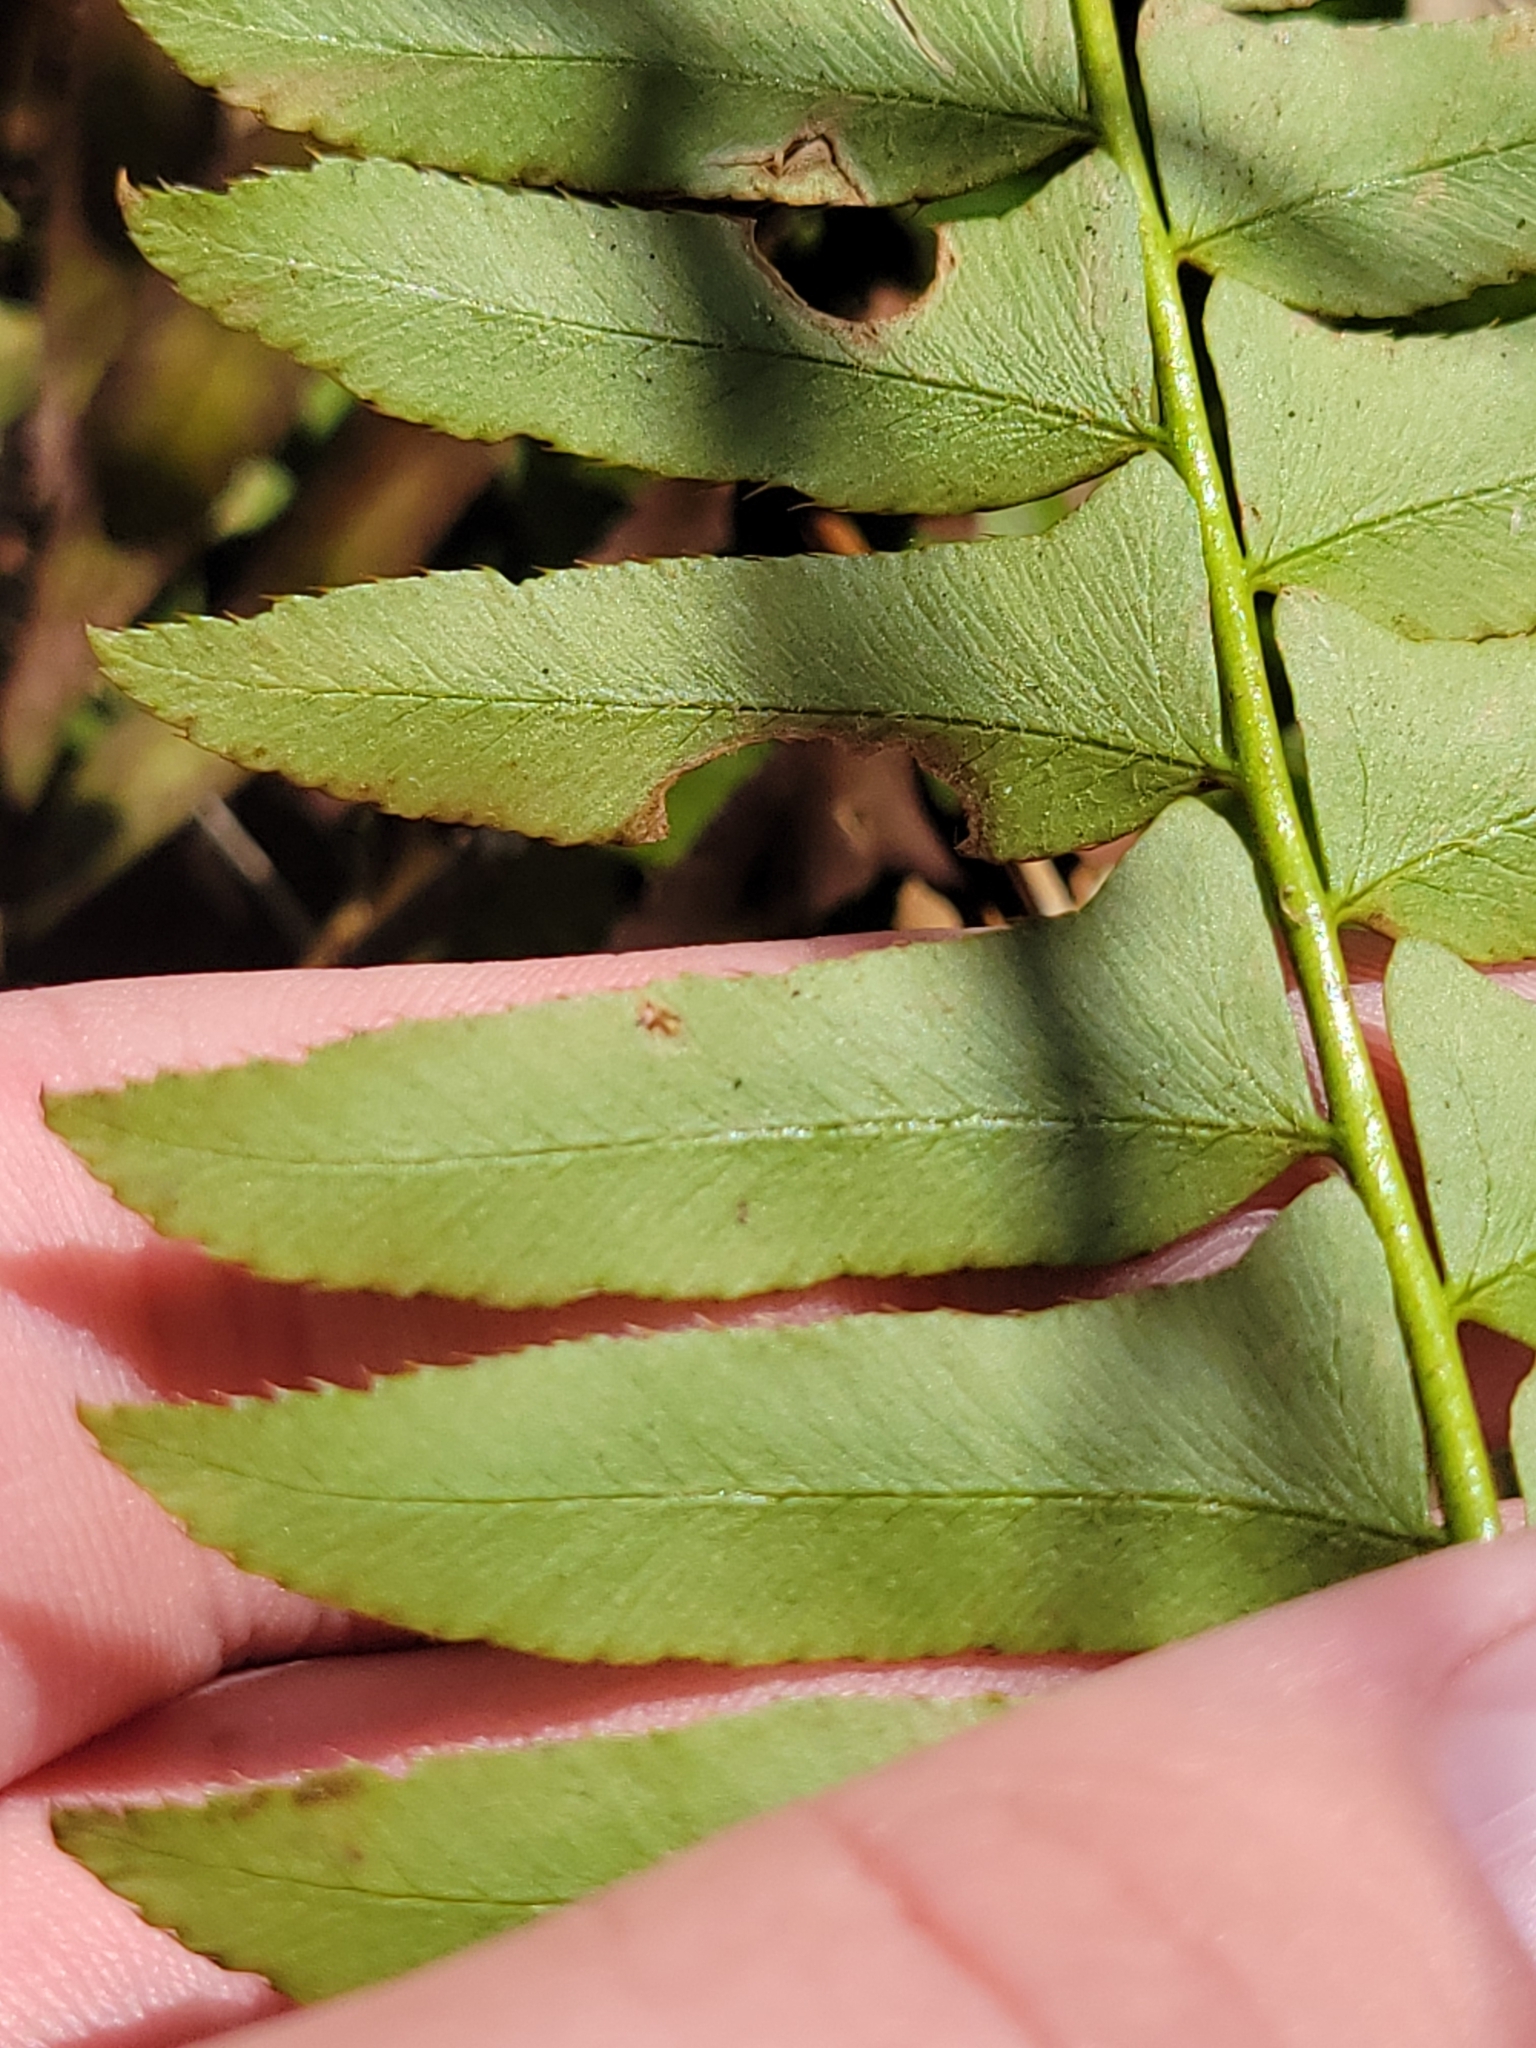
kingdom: Plantae
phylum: Tracheophyta
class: Polypodiopsida
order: Polypodiales
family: Dryopteridaceae
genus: Polystichum
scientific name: Polystichum acrostichoides
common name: Christmas fern
